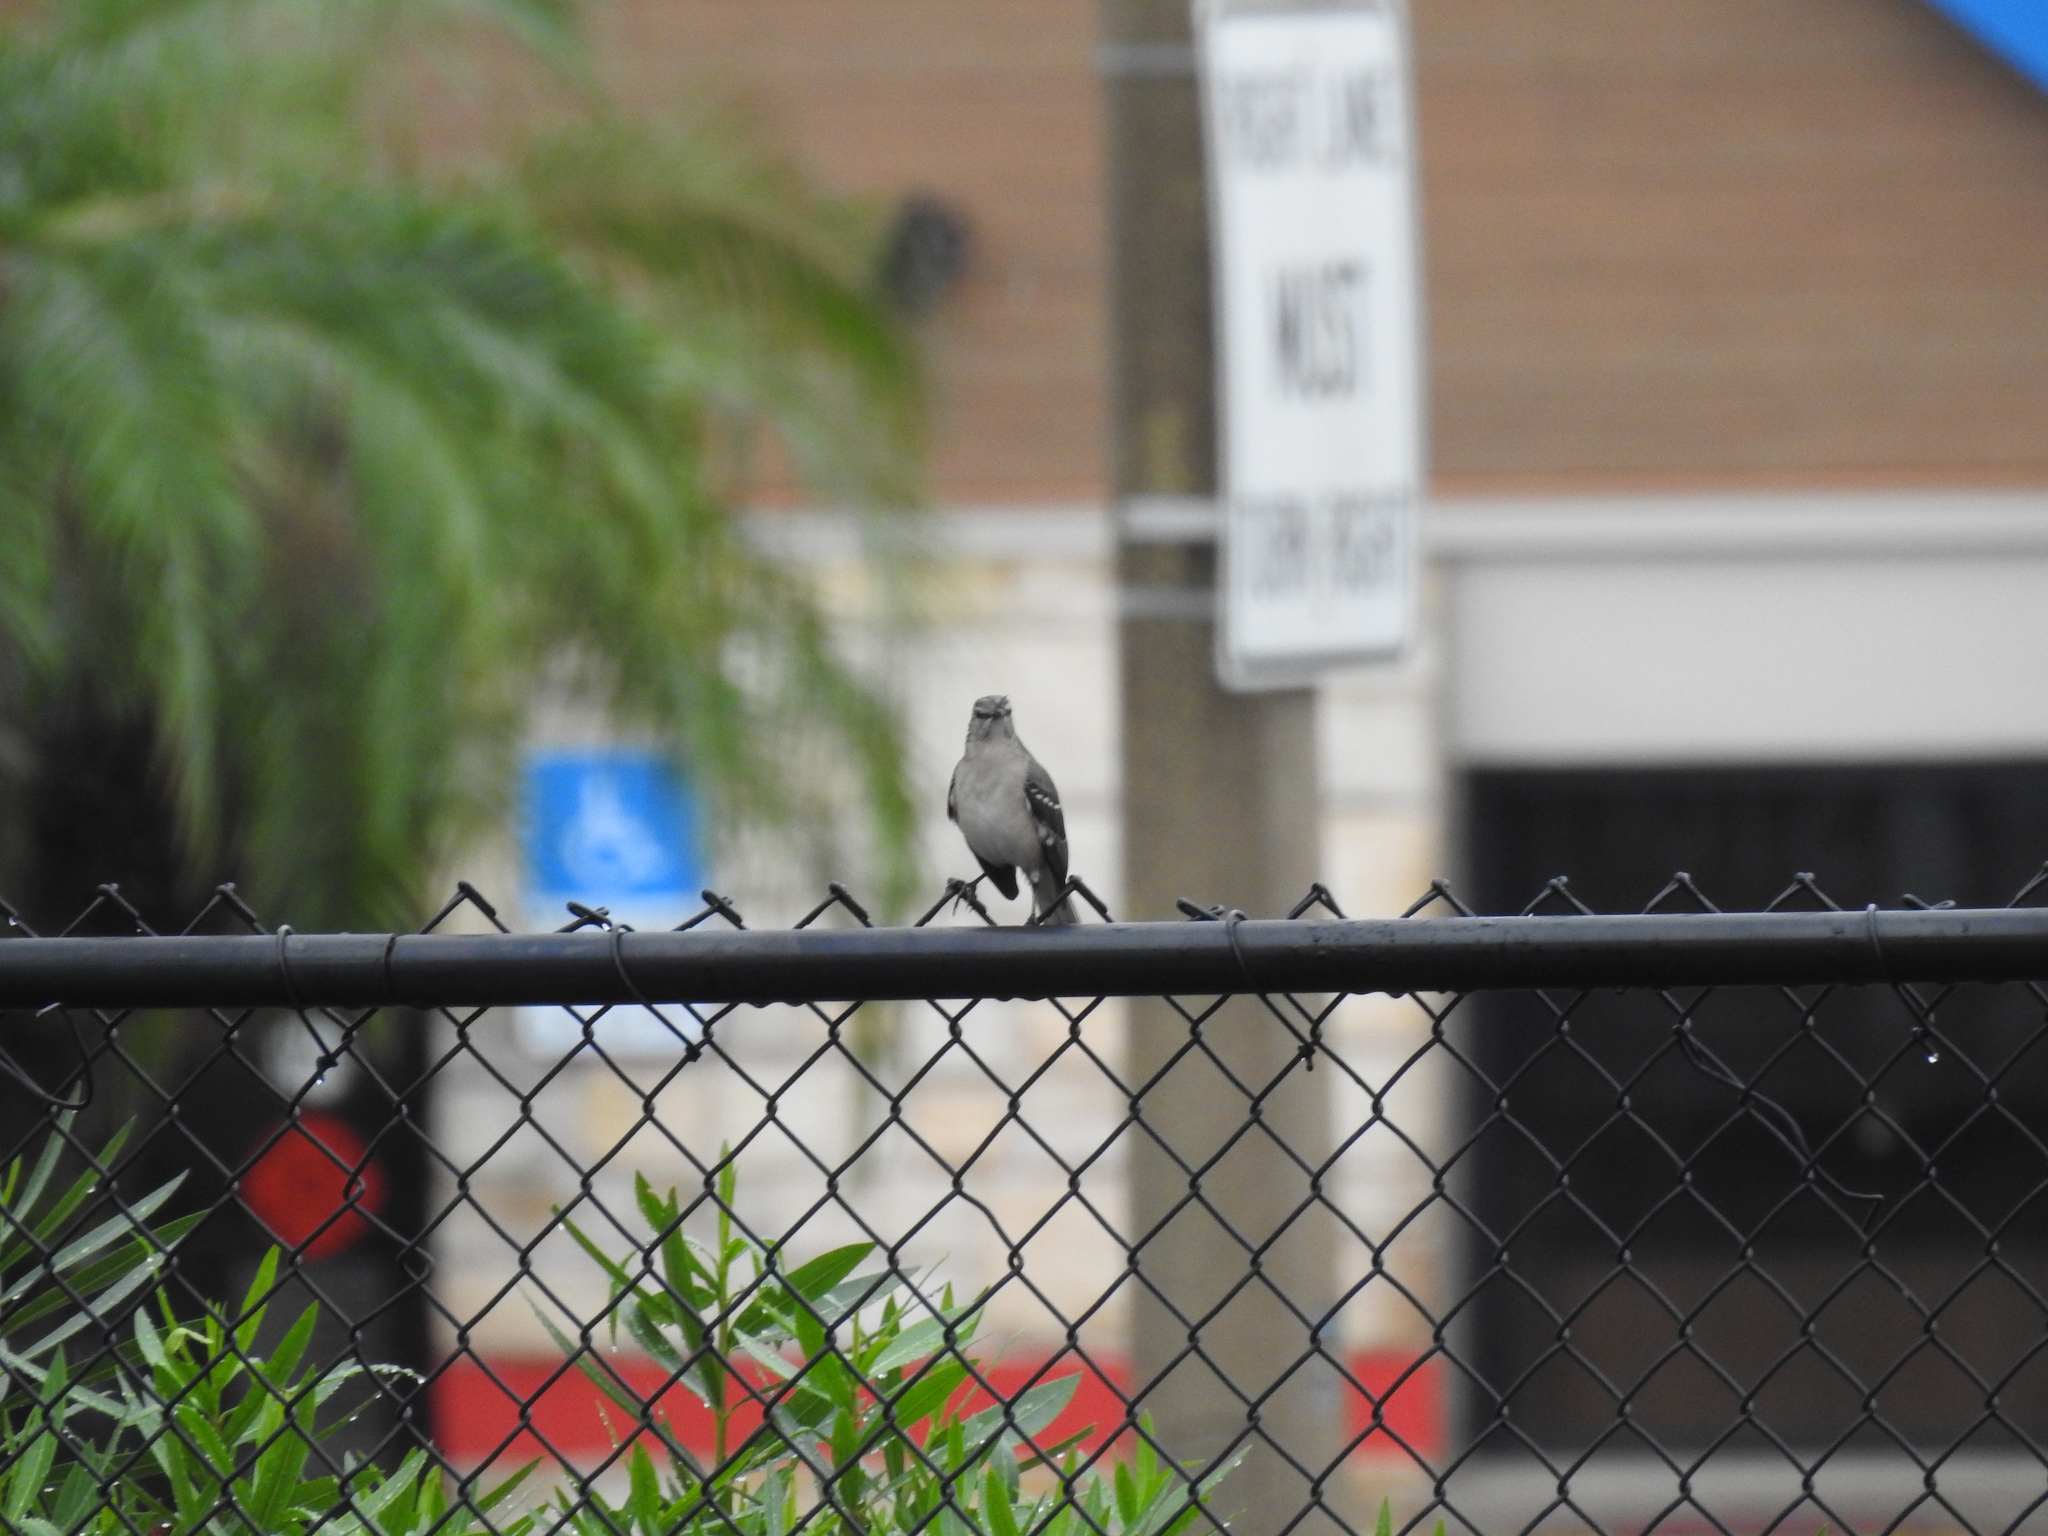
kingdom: Animalia
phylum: Chordata
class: Aves
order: Passeriformes
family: Mimidae
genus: Mimus
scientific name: Mimus polyglottos
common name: Northern mockingbird
